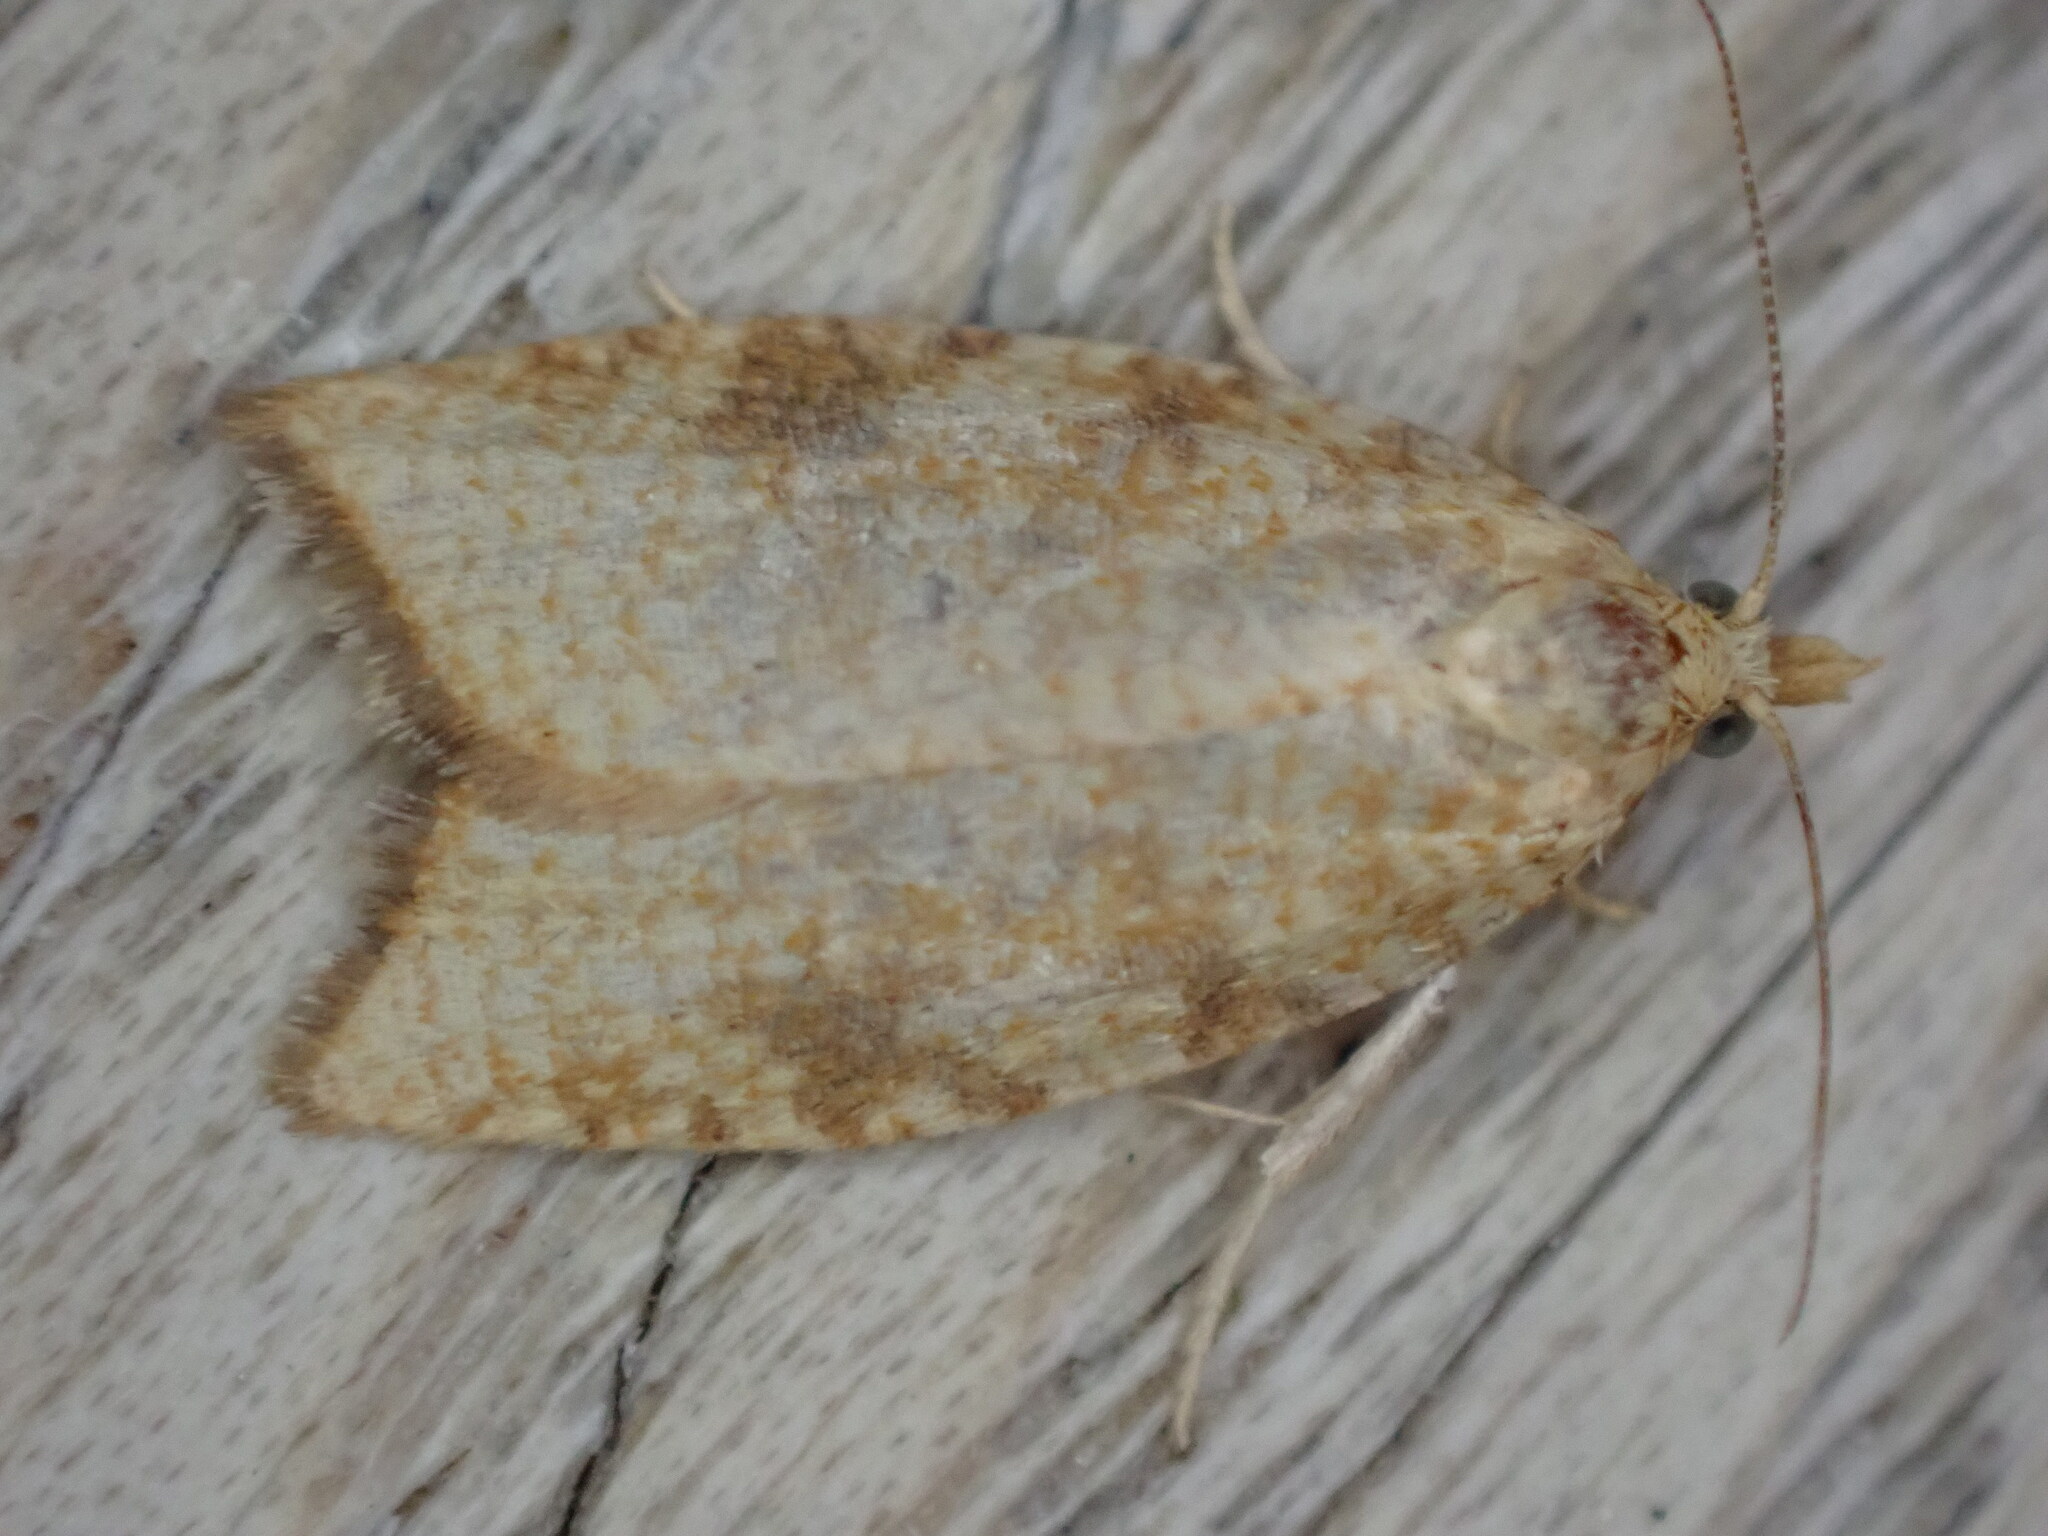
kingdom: Animalia
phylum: Arthropoda
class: Insecta
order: Lepidoptera
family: Tortricidae
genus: Aleimma
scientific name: Aleimma loeflingiana
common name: Yellow oak button
